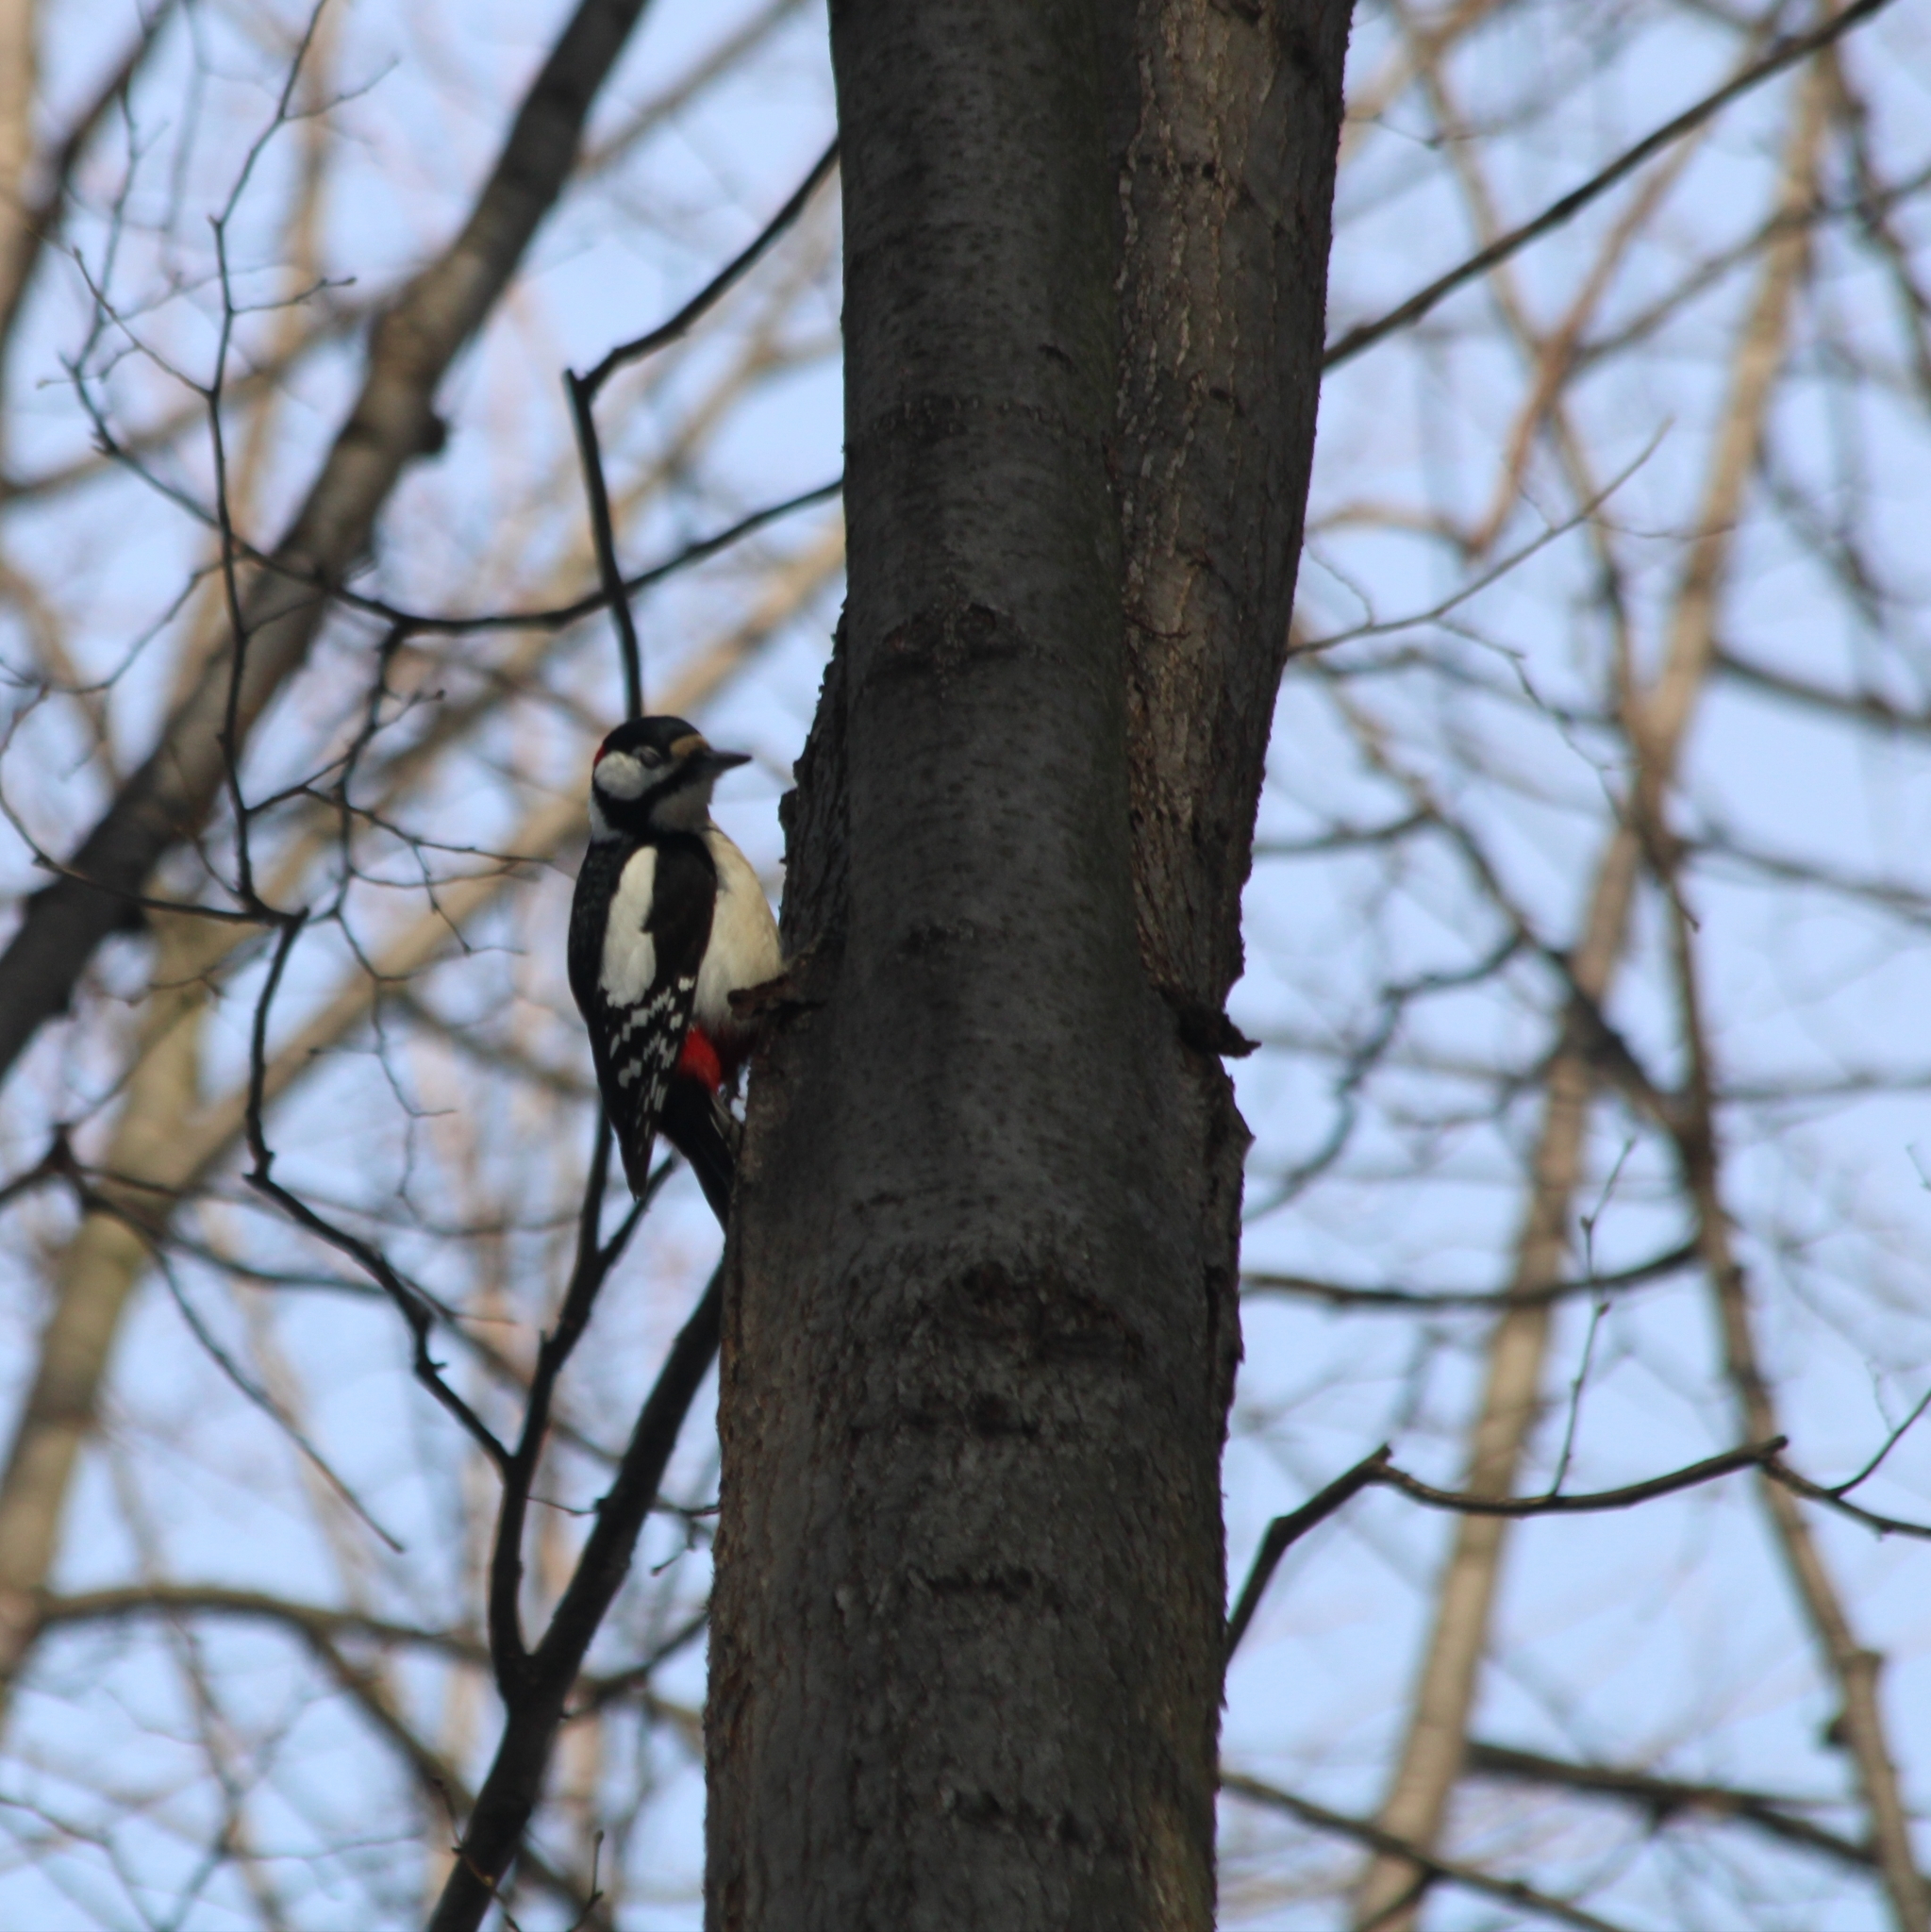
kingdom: Animalia
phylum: Chordata
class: Aves
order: Piciformes
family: Picidae
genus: Dendrocopos
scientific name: Dendrocopos major
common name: Great spotted woodpecker
